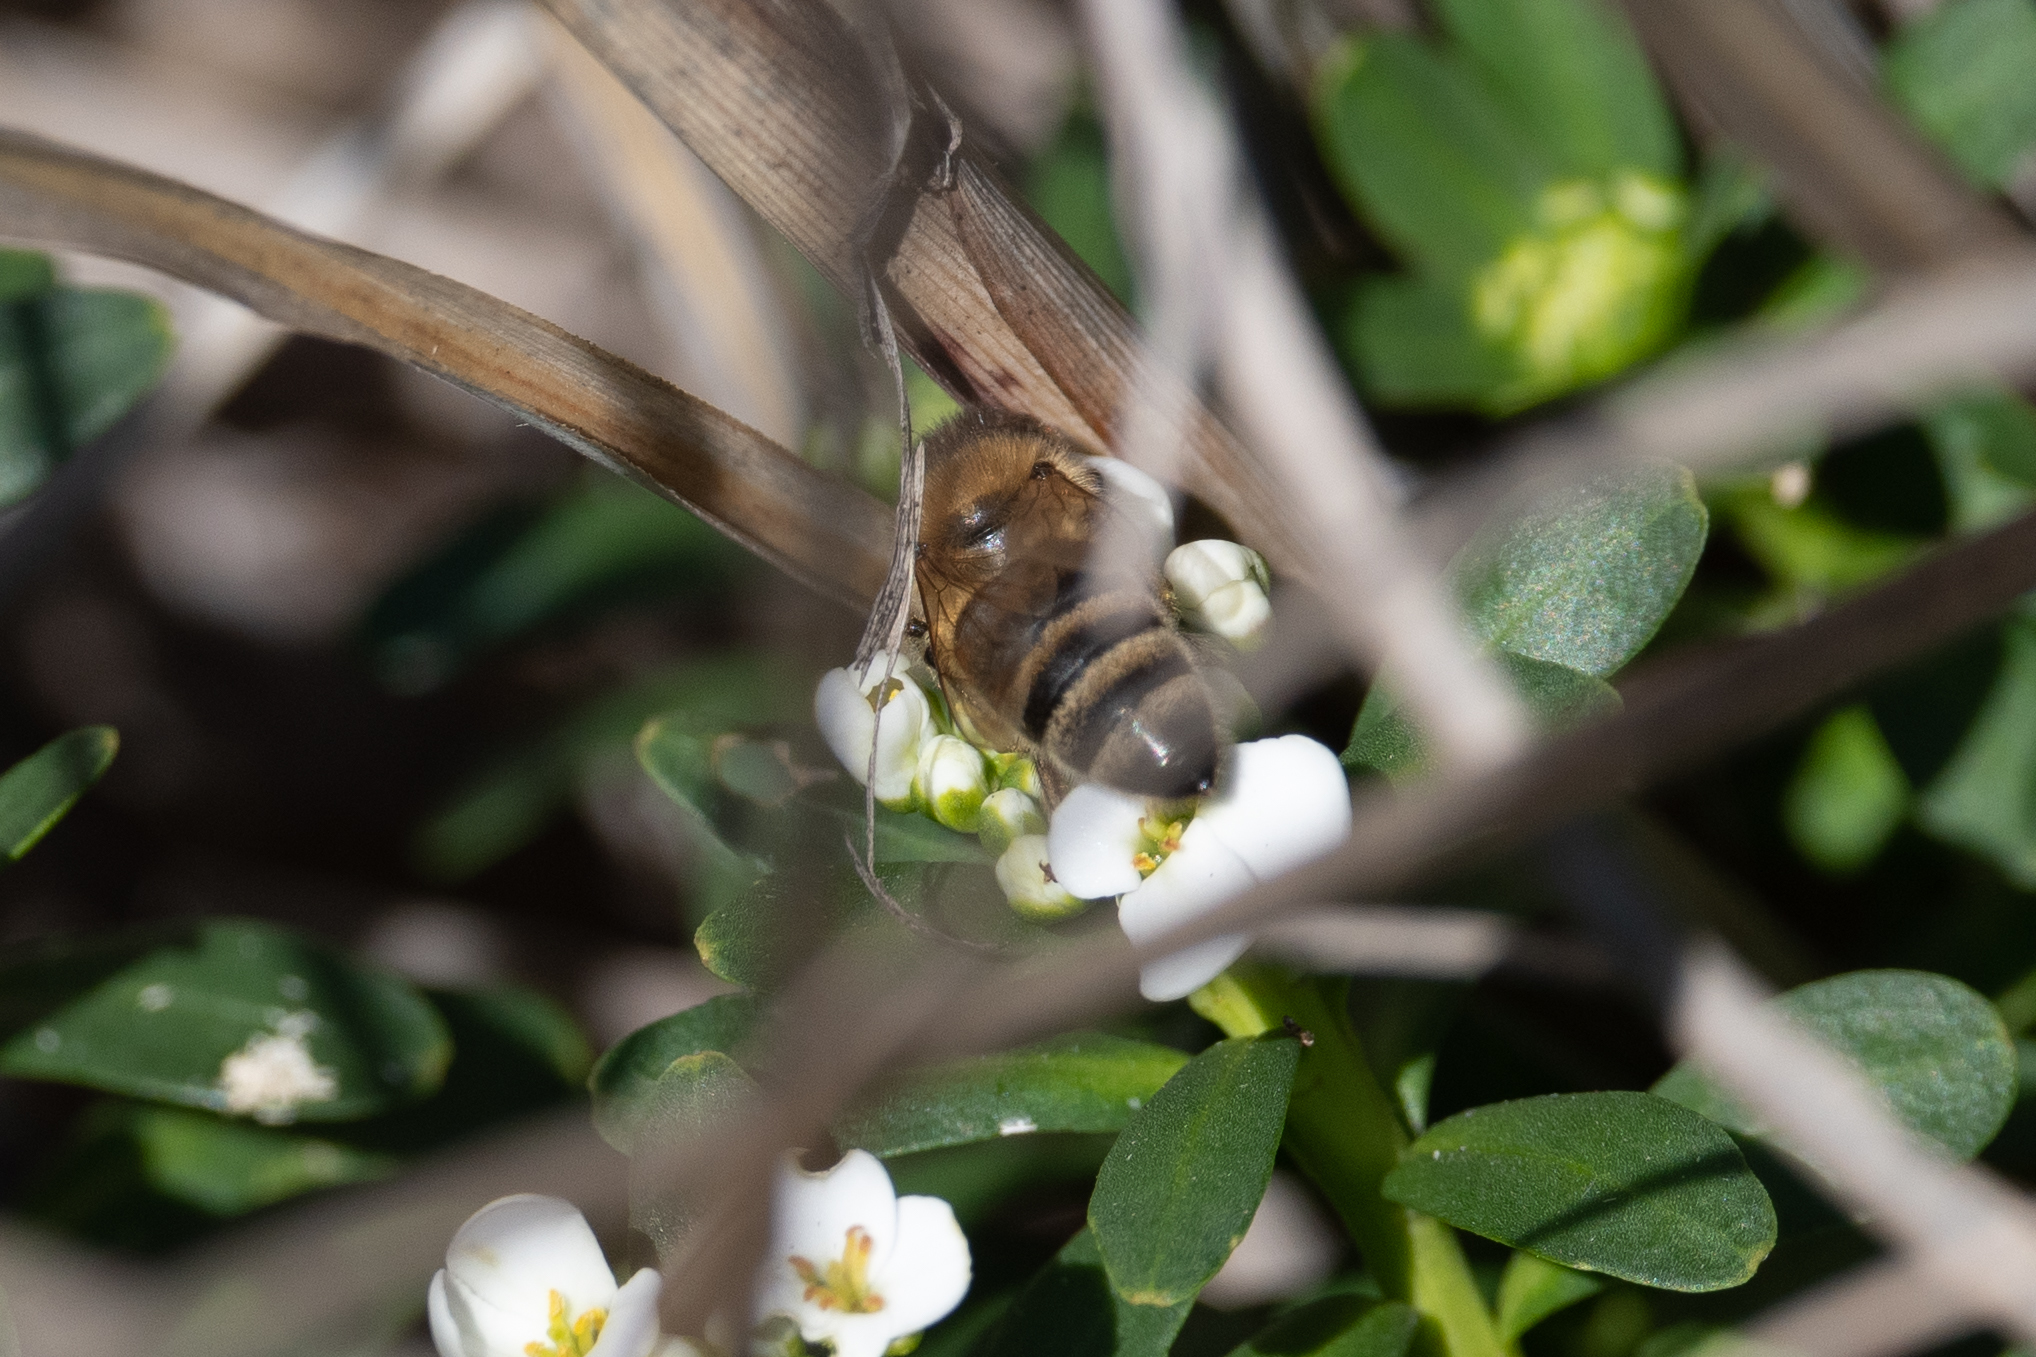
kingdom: Animalia
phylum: Arthropoda
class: Insecta
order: Hymenoptera
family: Apidae
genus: Apis
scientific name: Apis mellifera
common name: Honey bee
